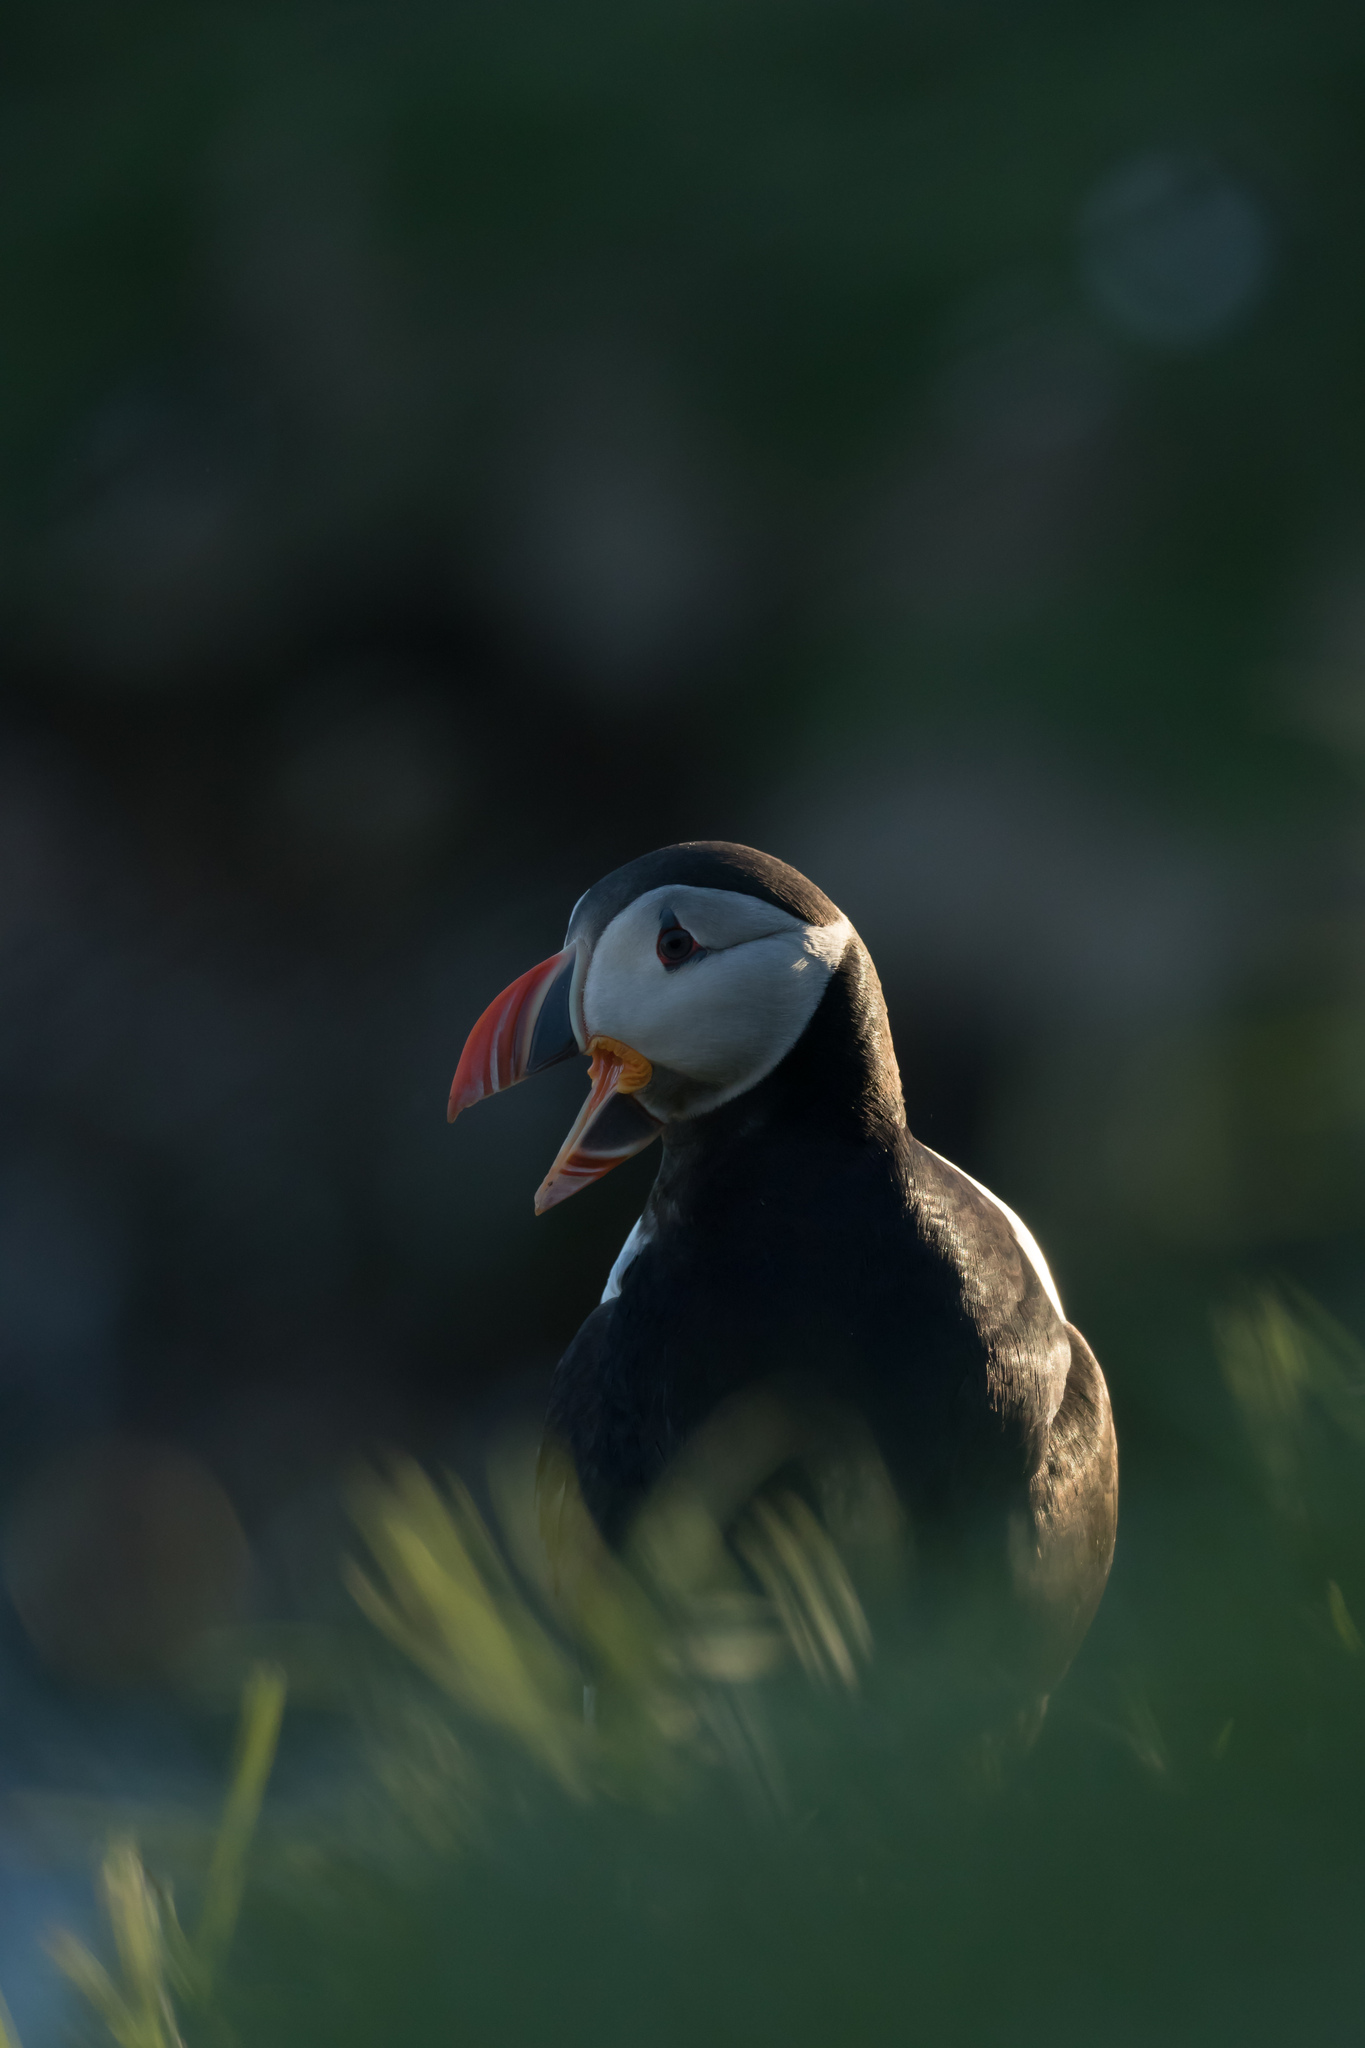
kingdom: Animalia
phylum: Chordata
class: Aves
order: Charadriiformes
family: Alcidae
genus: Fratercula
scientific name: Fratercula arctica
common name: Atlantic puffin
